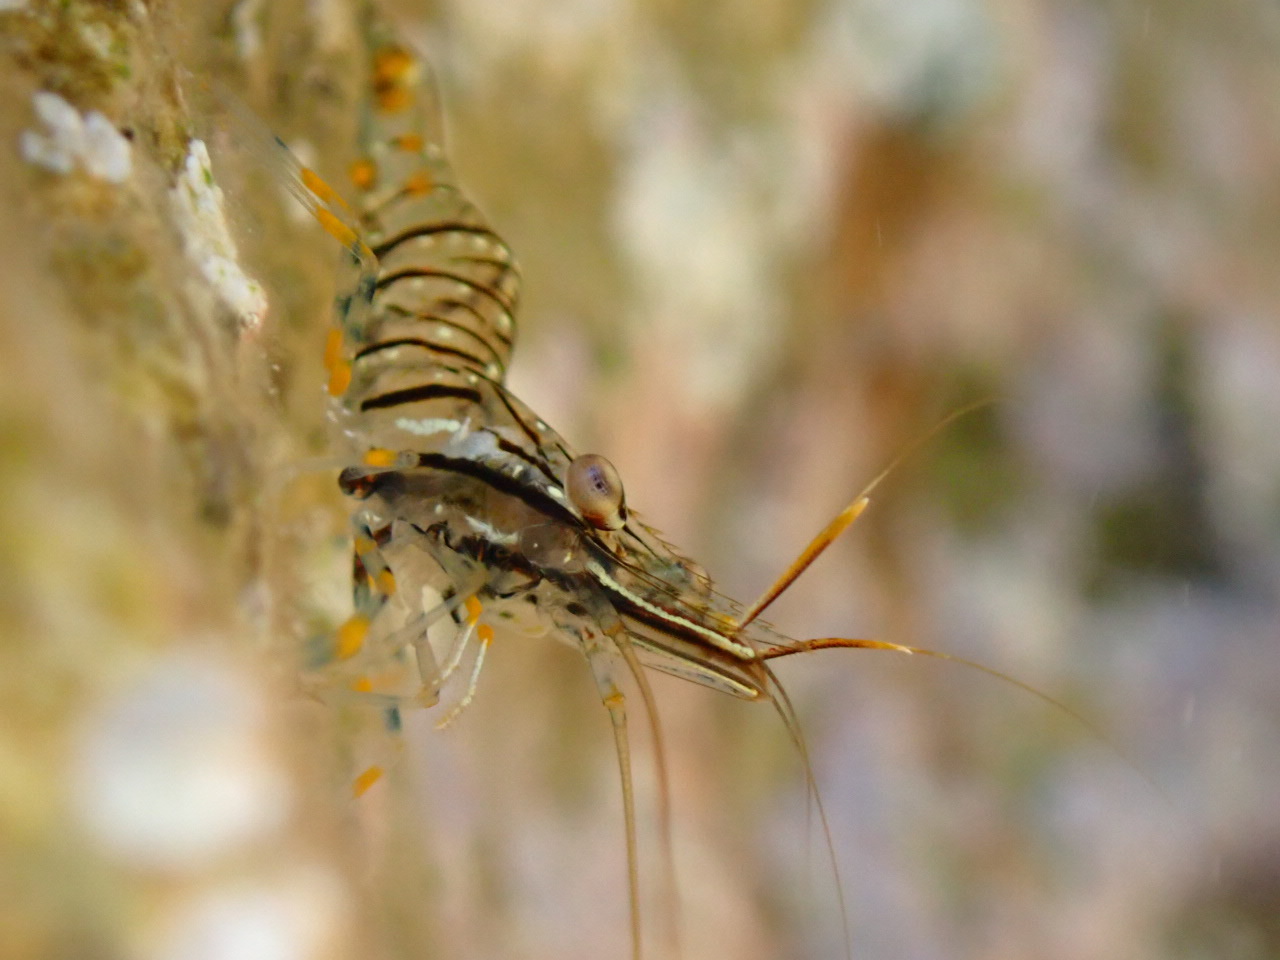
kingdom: Animalia
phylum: Arthropoda
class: Malacostraca
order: Decapoda
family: Palaemonidae
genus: Palaemon
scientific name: Palaemon elegans
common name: Grass prawm
